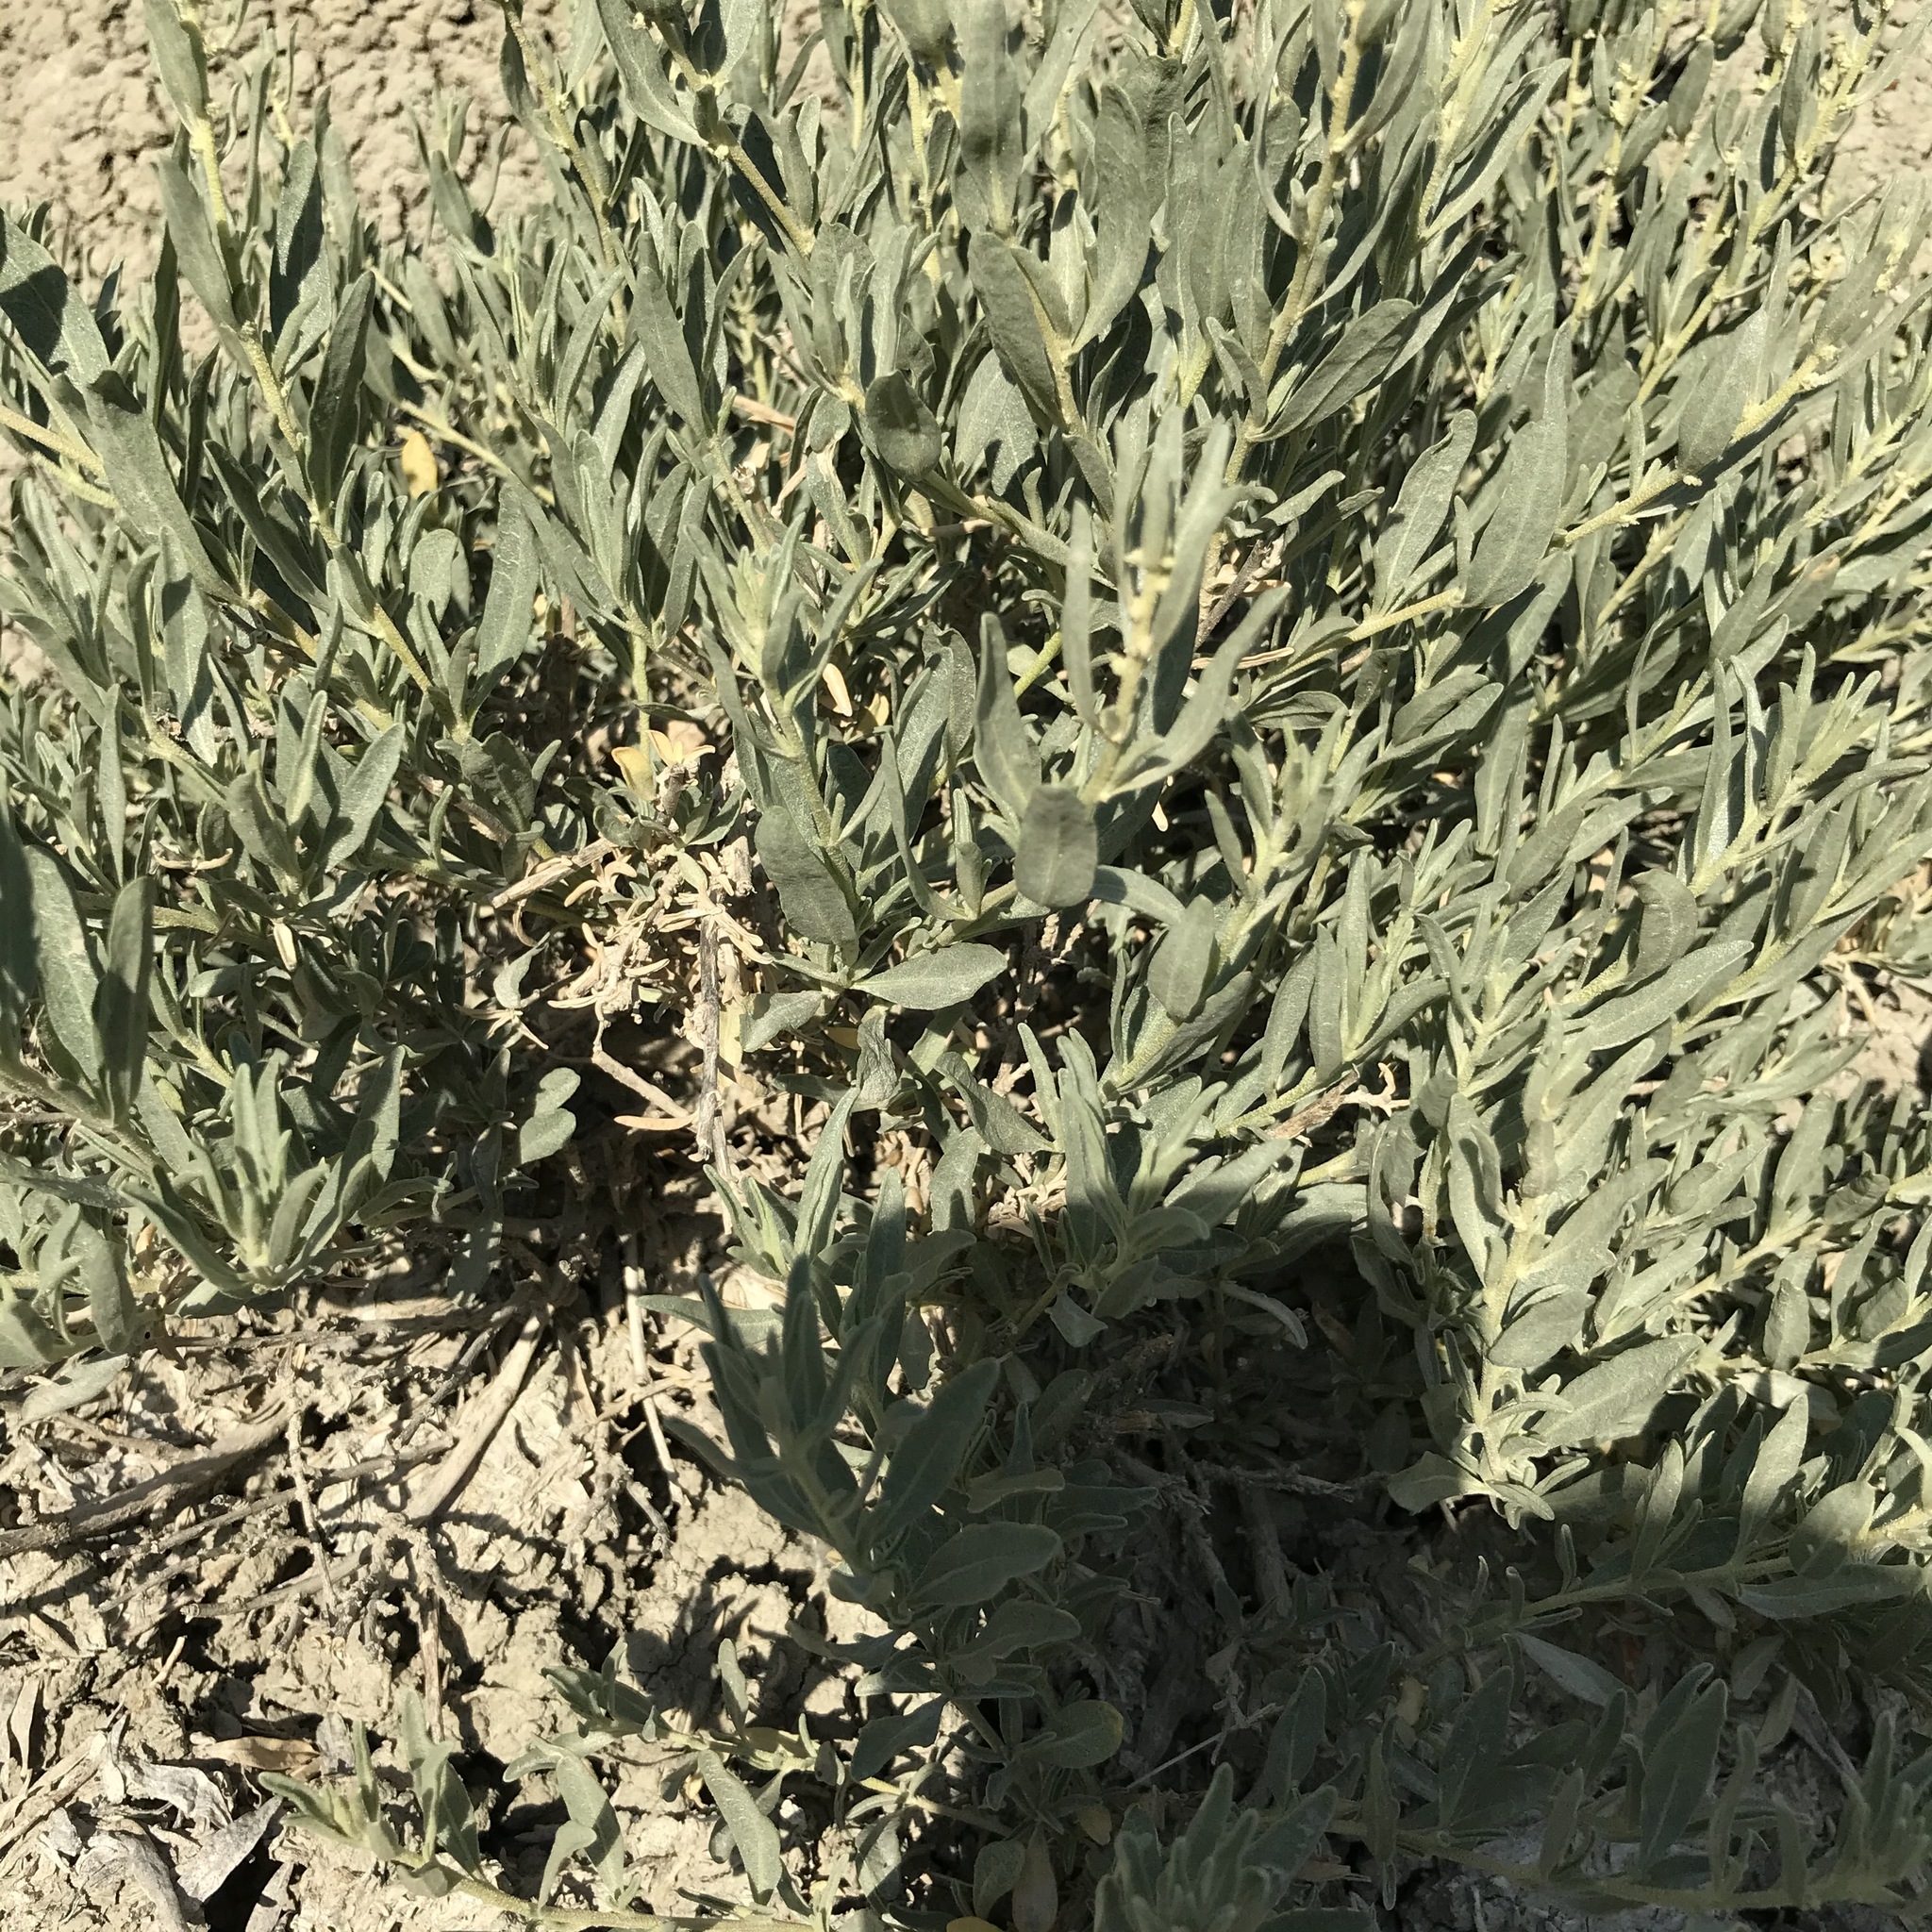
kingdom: Plantae
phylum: Tracheophyta
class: Magnoliopsida
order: Caryophyllales
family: Amaranthaceae
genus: Atriplex
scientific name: Atriplex canescens
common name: Four-wing saltbush
